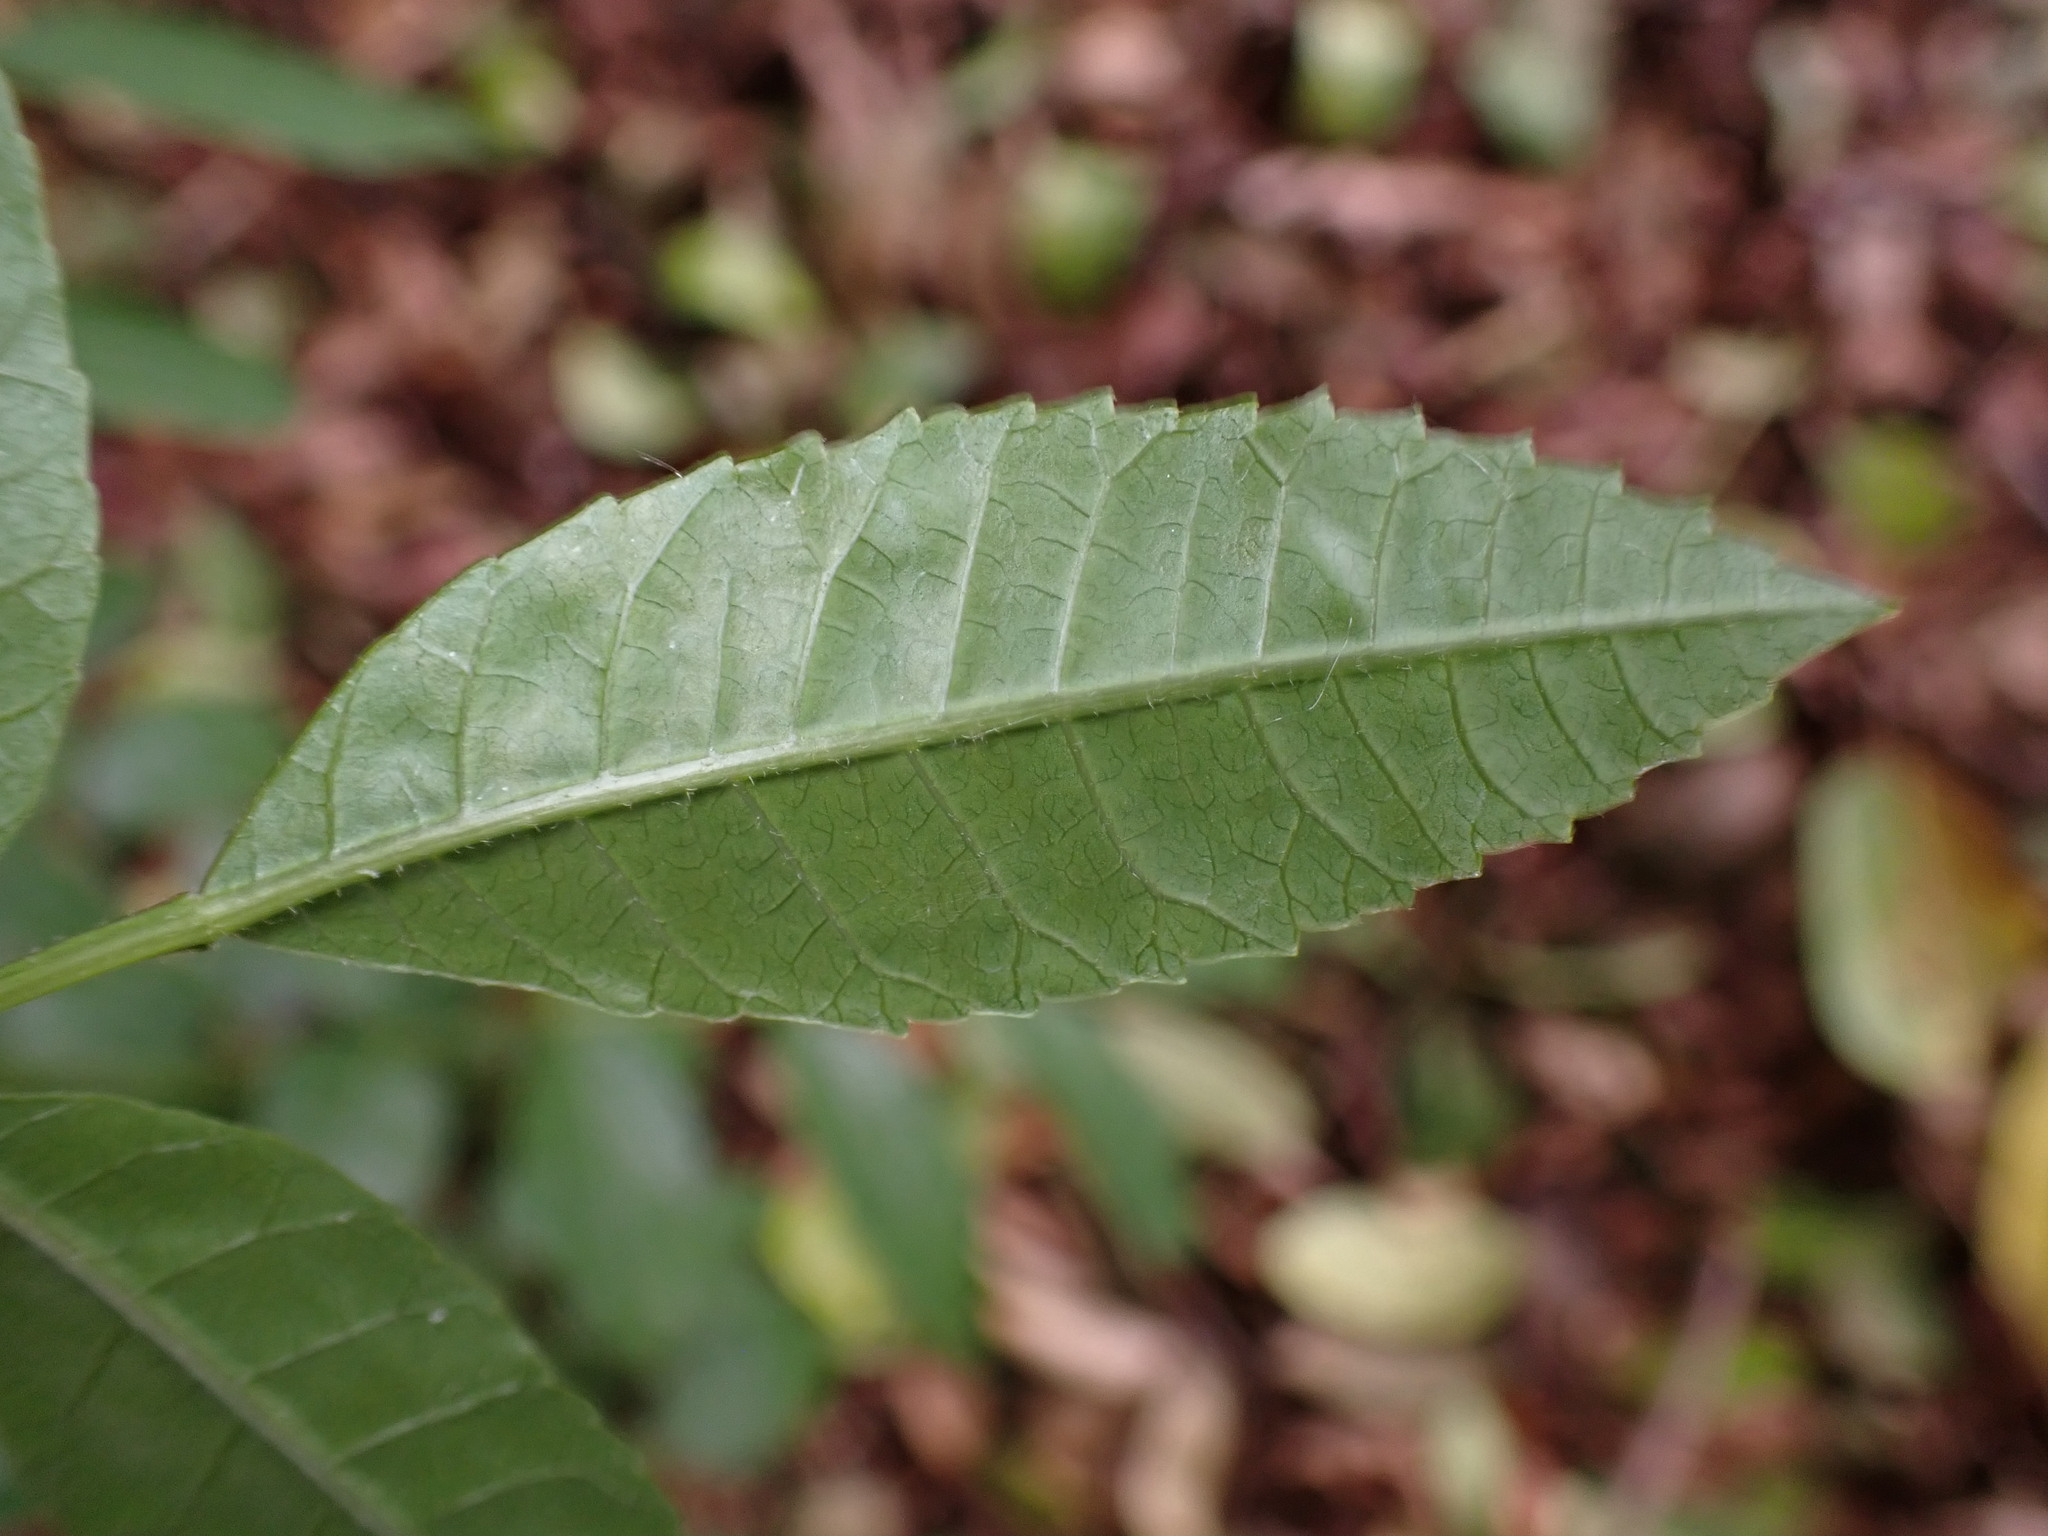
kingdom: Plantae
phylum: Tracheophyta
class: Magnoliopsida
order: Sapindales
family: Anacardiaceae
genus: Schinus
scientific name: Schinus terebinthifolia
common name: Brazilian peppertree
